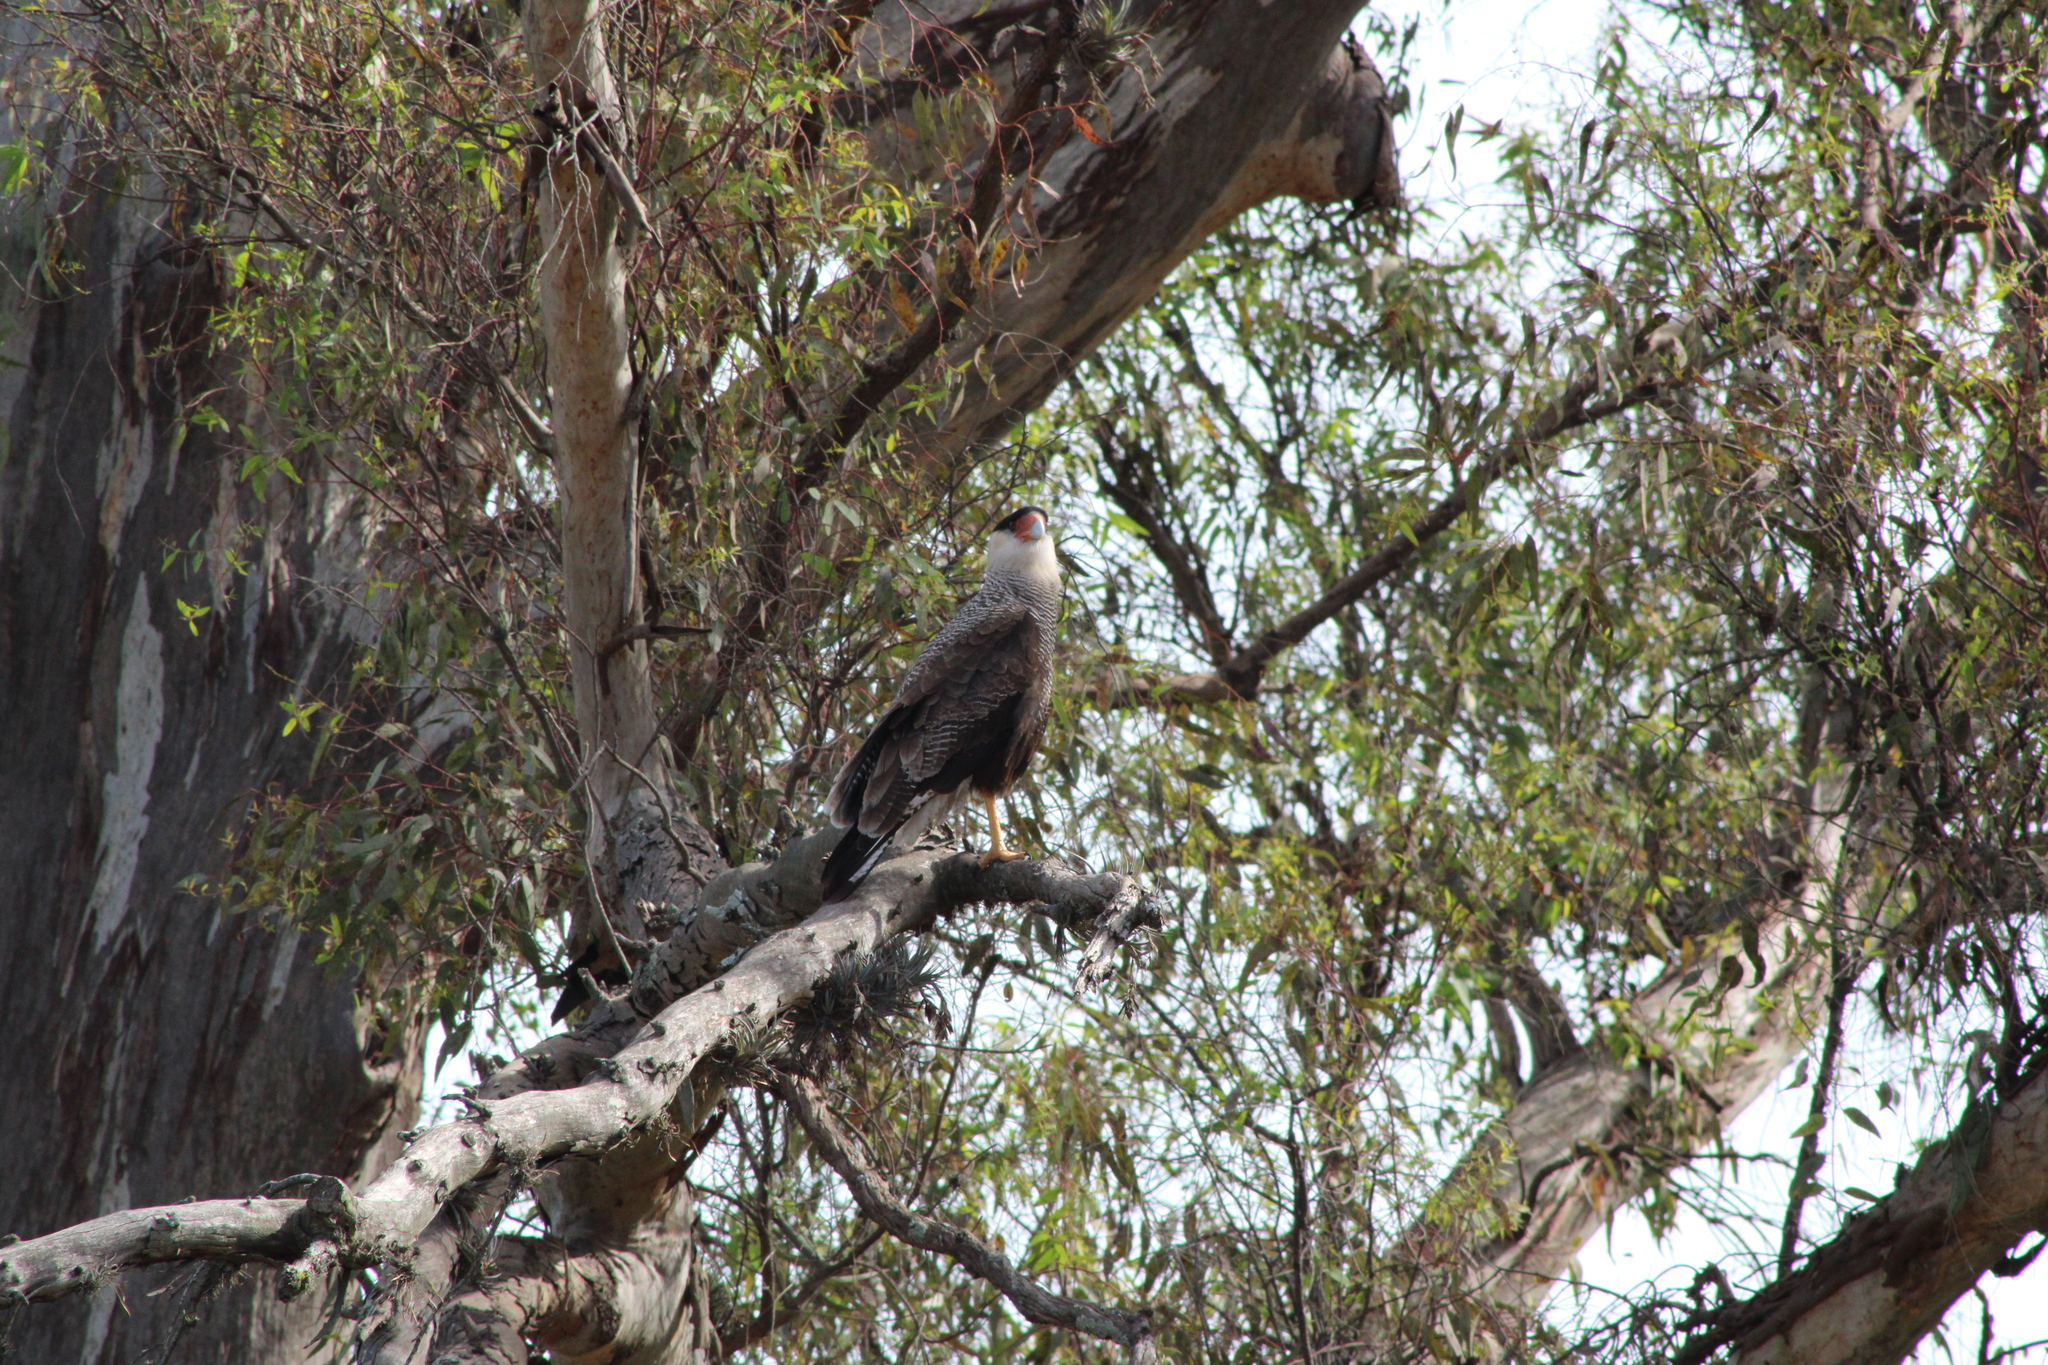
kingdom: Animalia
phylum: Chordata
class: Aves
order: Falconiformes
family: Falconidae
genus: Caracara
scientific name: Caracara plancus
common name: Southern caracara
